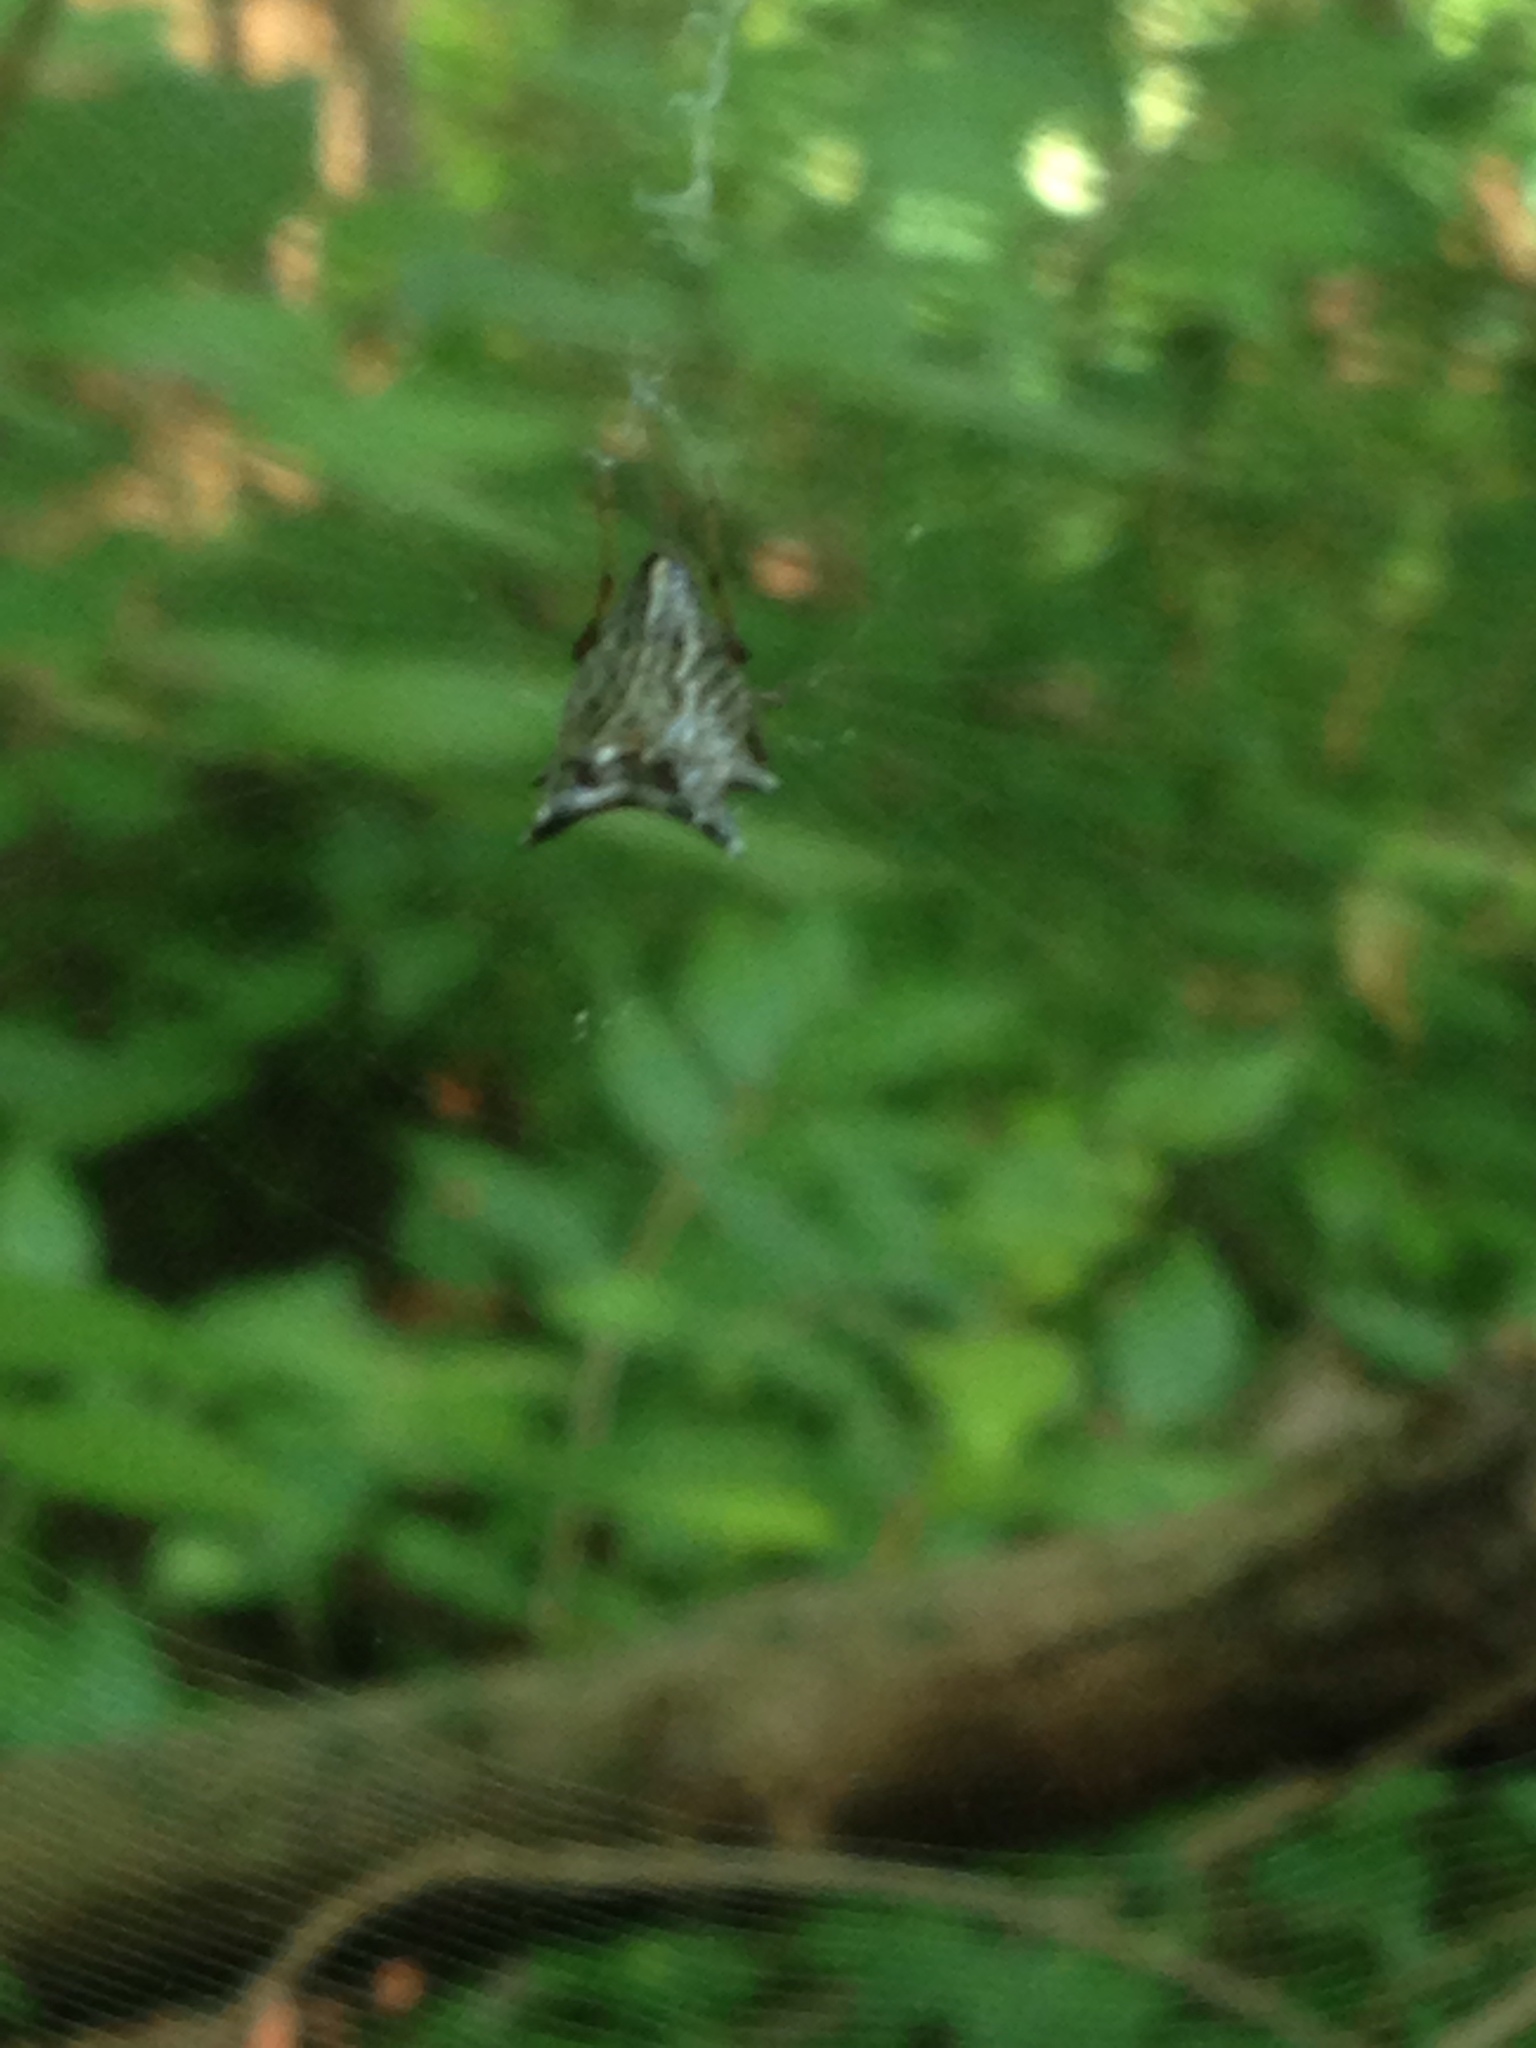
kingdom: Animalia
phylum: Arthropoda
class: Arachnida
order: Araneae
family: Araneidae
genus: Micrathena
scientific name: Micrathena gracilis
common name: Orb weavers
